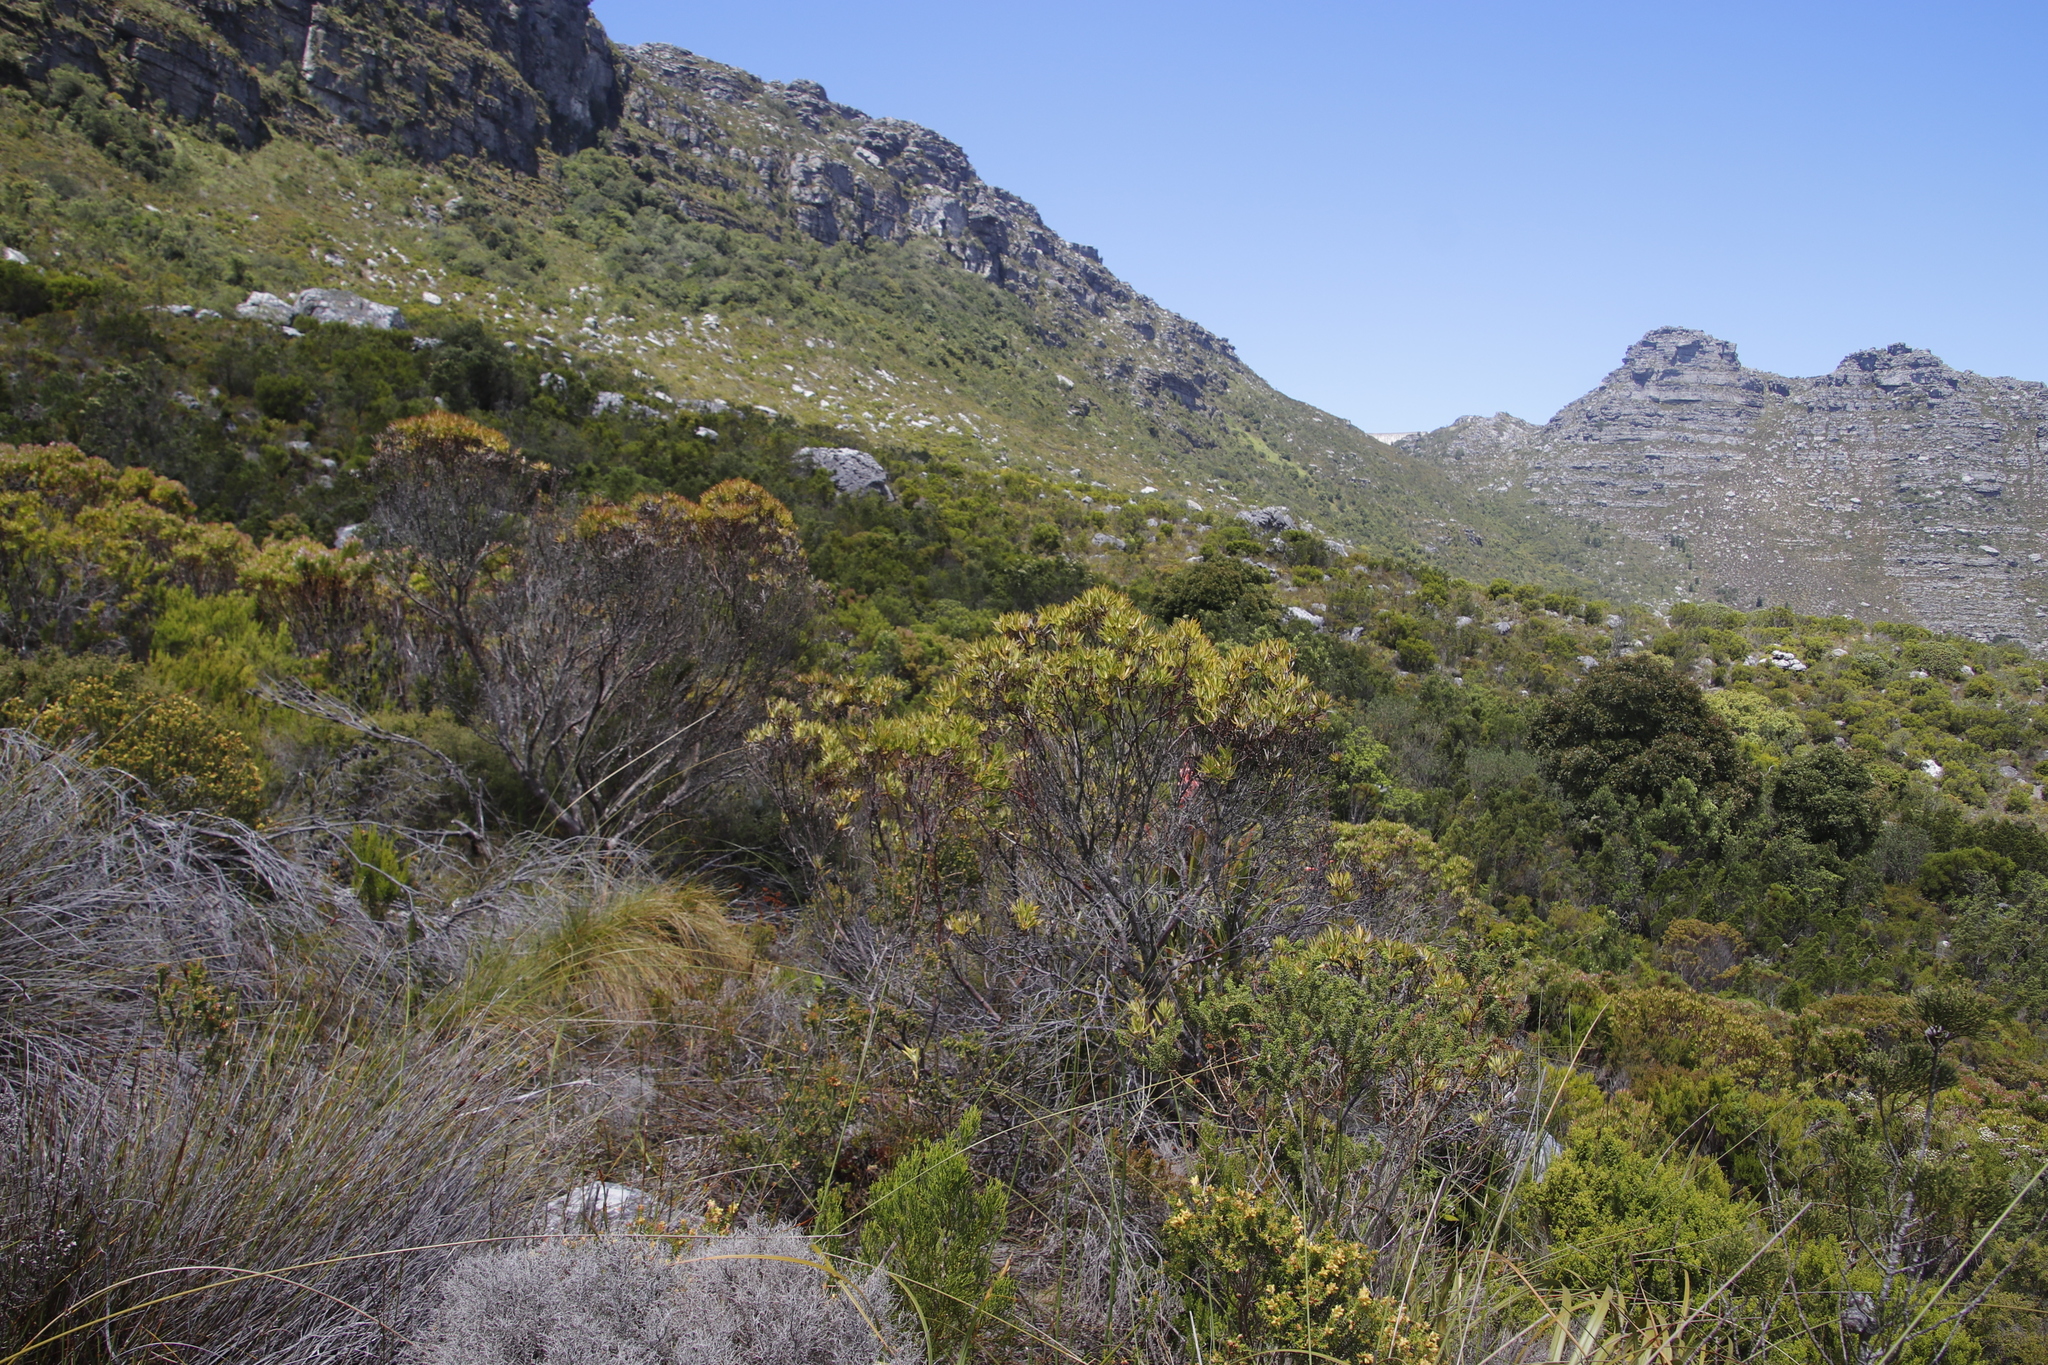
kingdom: Plantae
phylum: Tracheophyta
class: Magnoliopsida
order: Proteales
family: Proteaceae
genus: Leucadendron
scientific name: Leucadendron xanthoconus
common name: Sickle-leaf conebush
